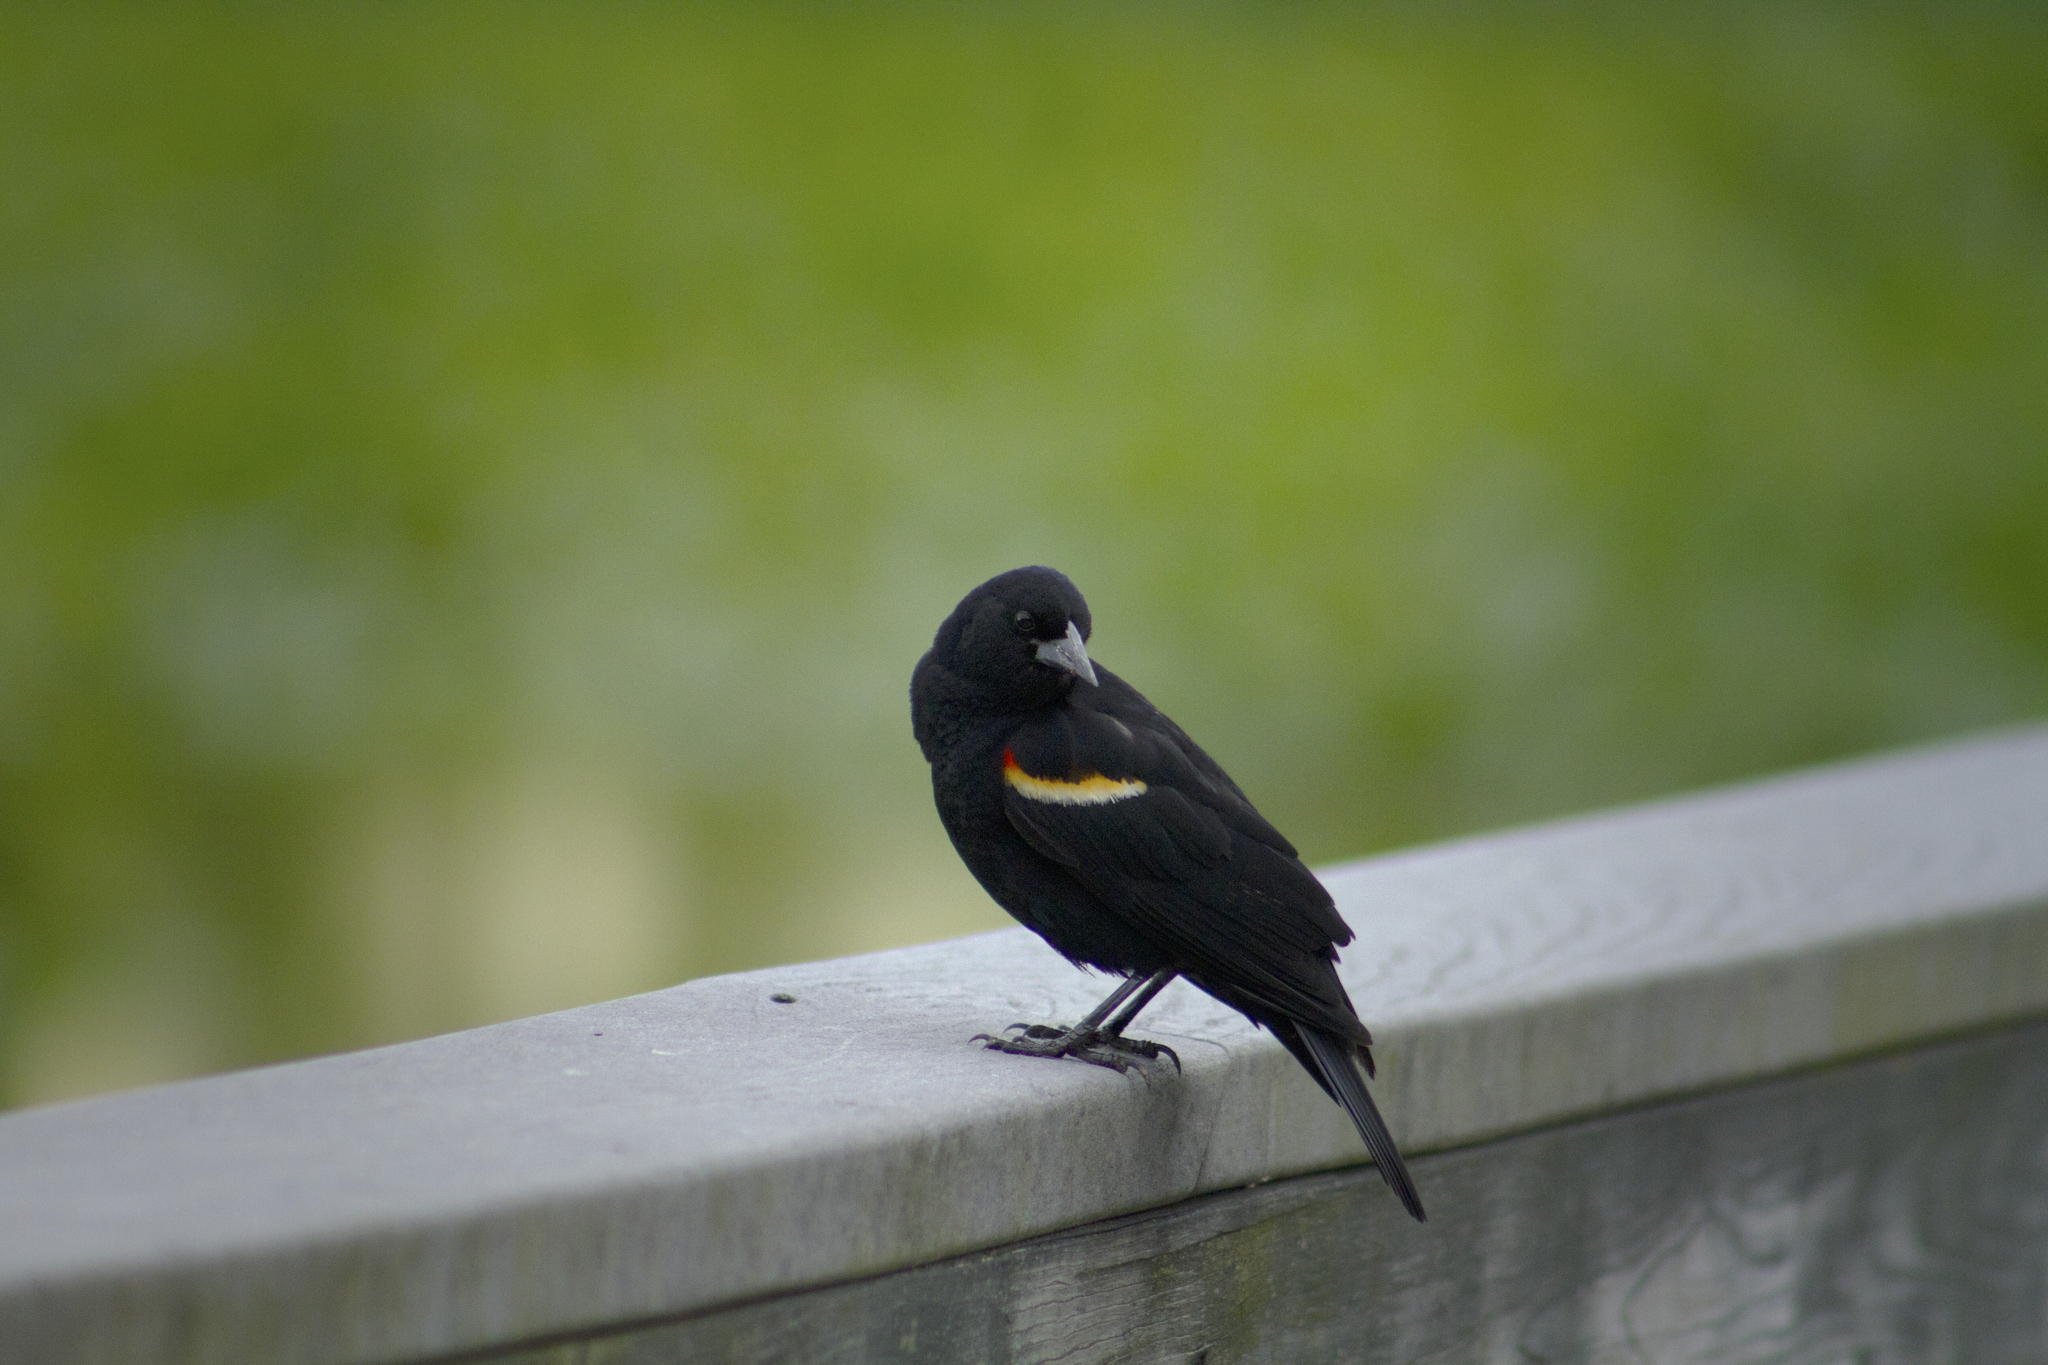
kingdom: Animalia
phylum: Chordata
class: Aves
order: Passeriformes
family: Icteridae
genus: Agelaius
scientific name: Agelaius phoeniceus
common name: Red-winged blackbird
